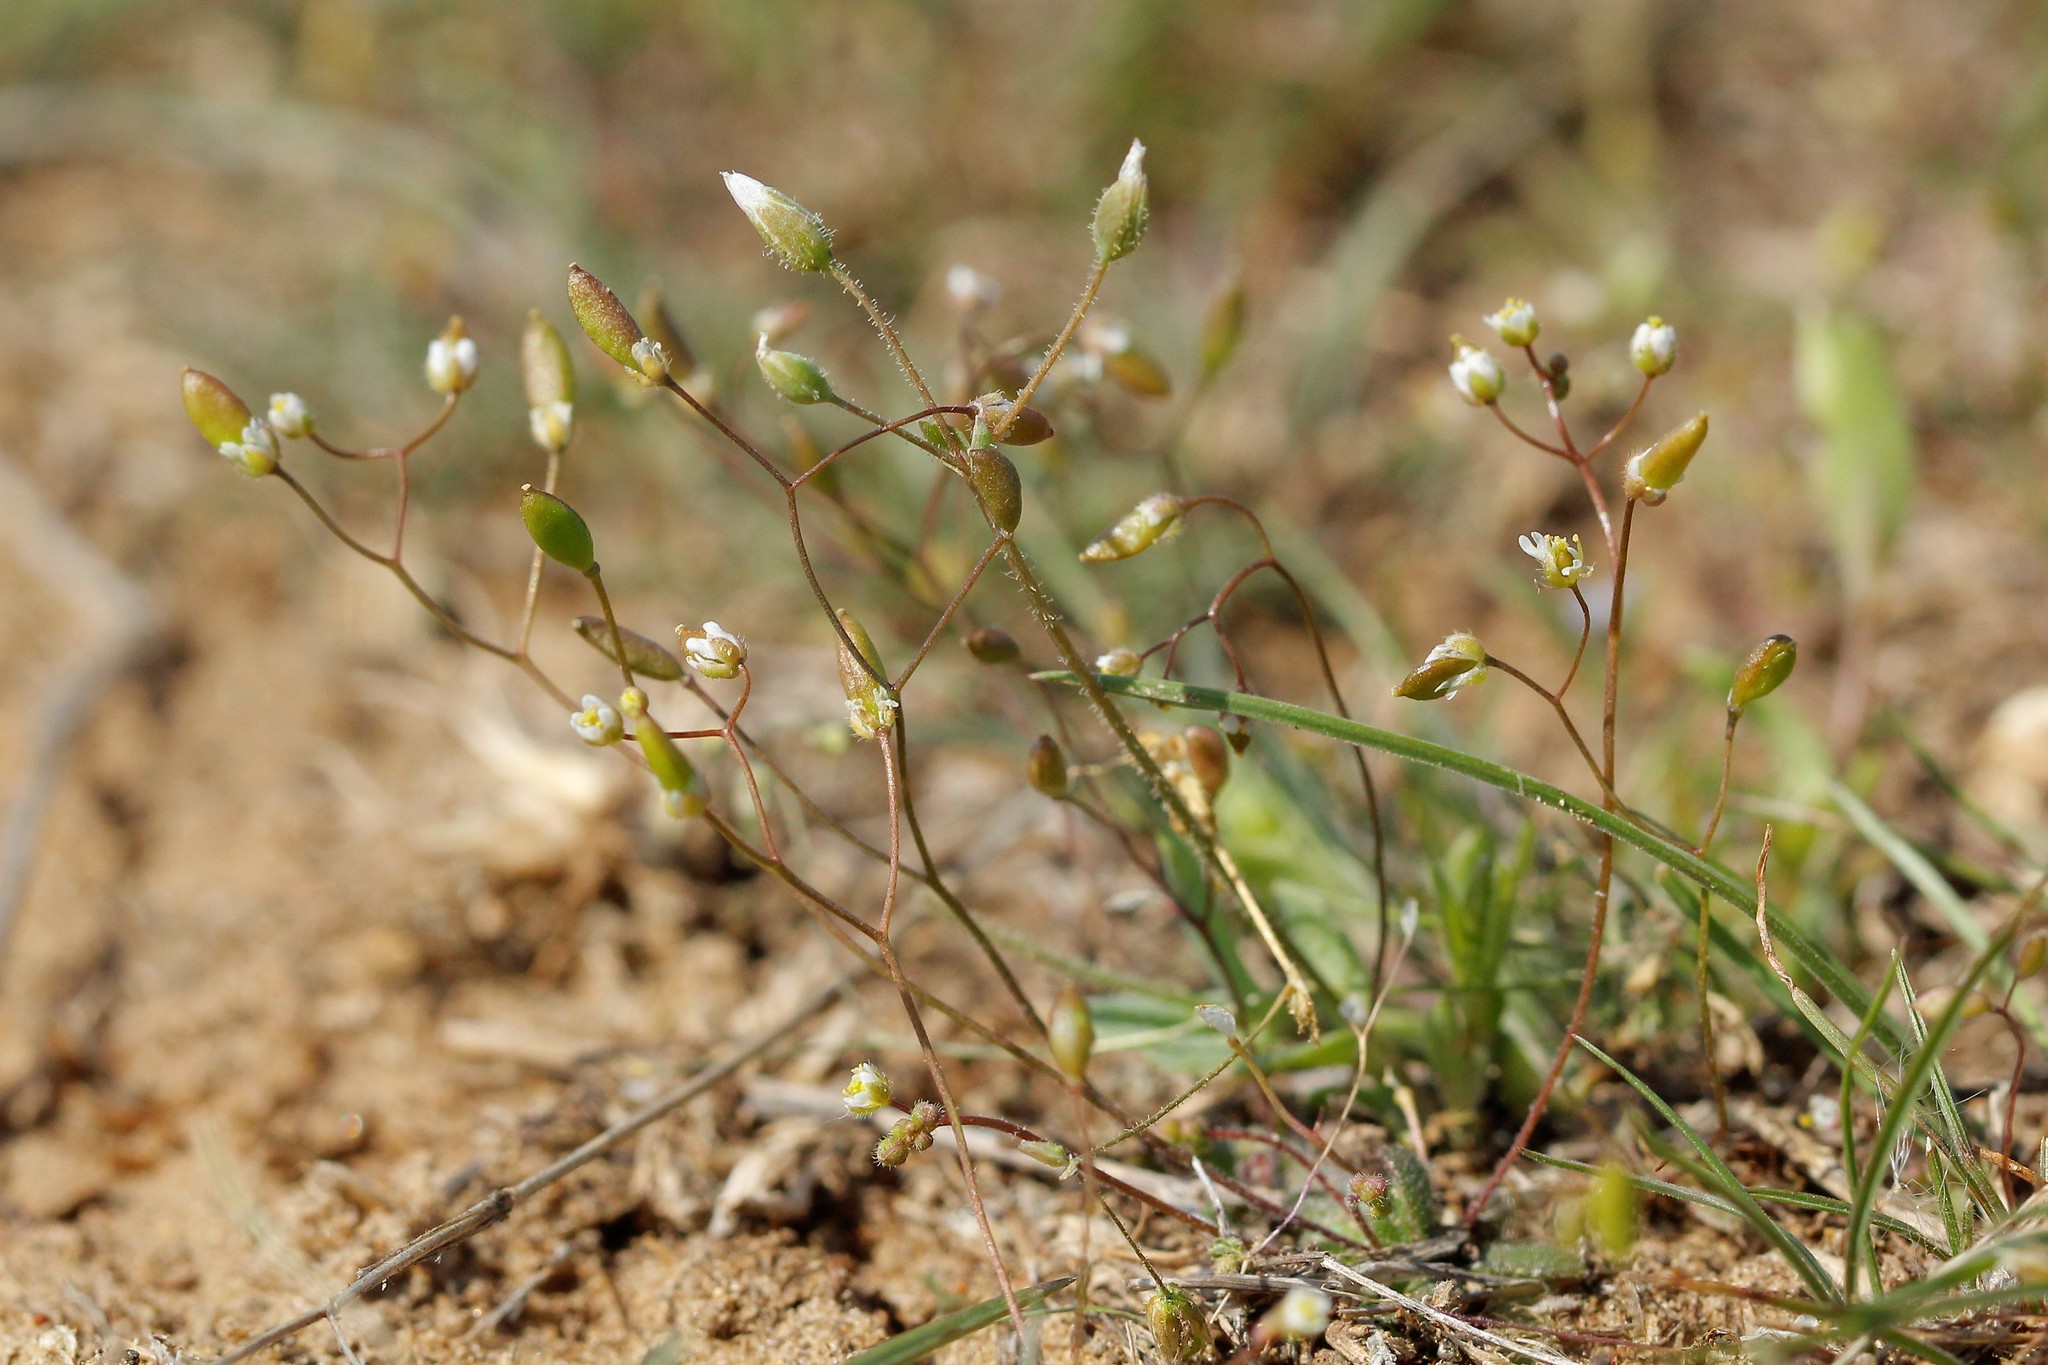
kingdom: Plantae
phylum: Tracheophyta
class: Magnoliopsida
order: Brassicales
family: Brassicaceae
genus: Draba
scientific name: Draba verna
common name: Spring draba
